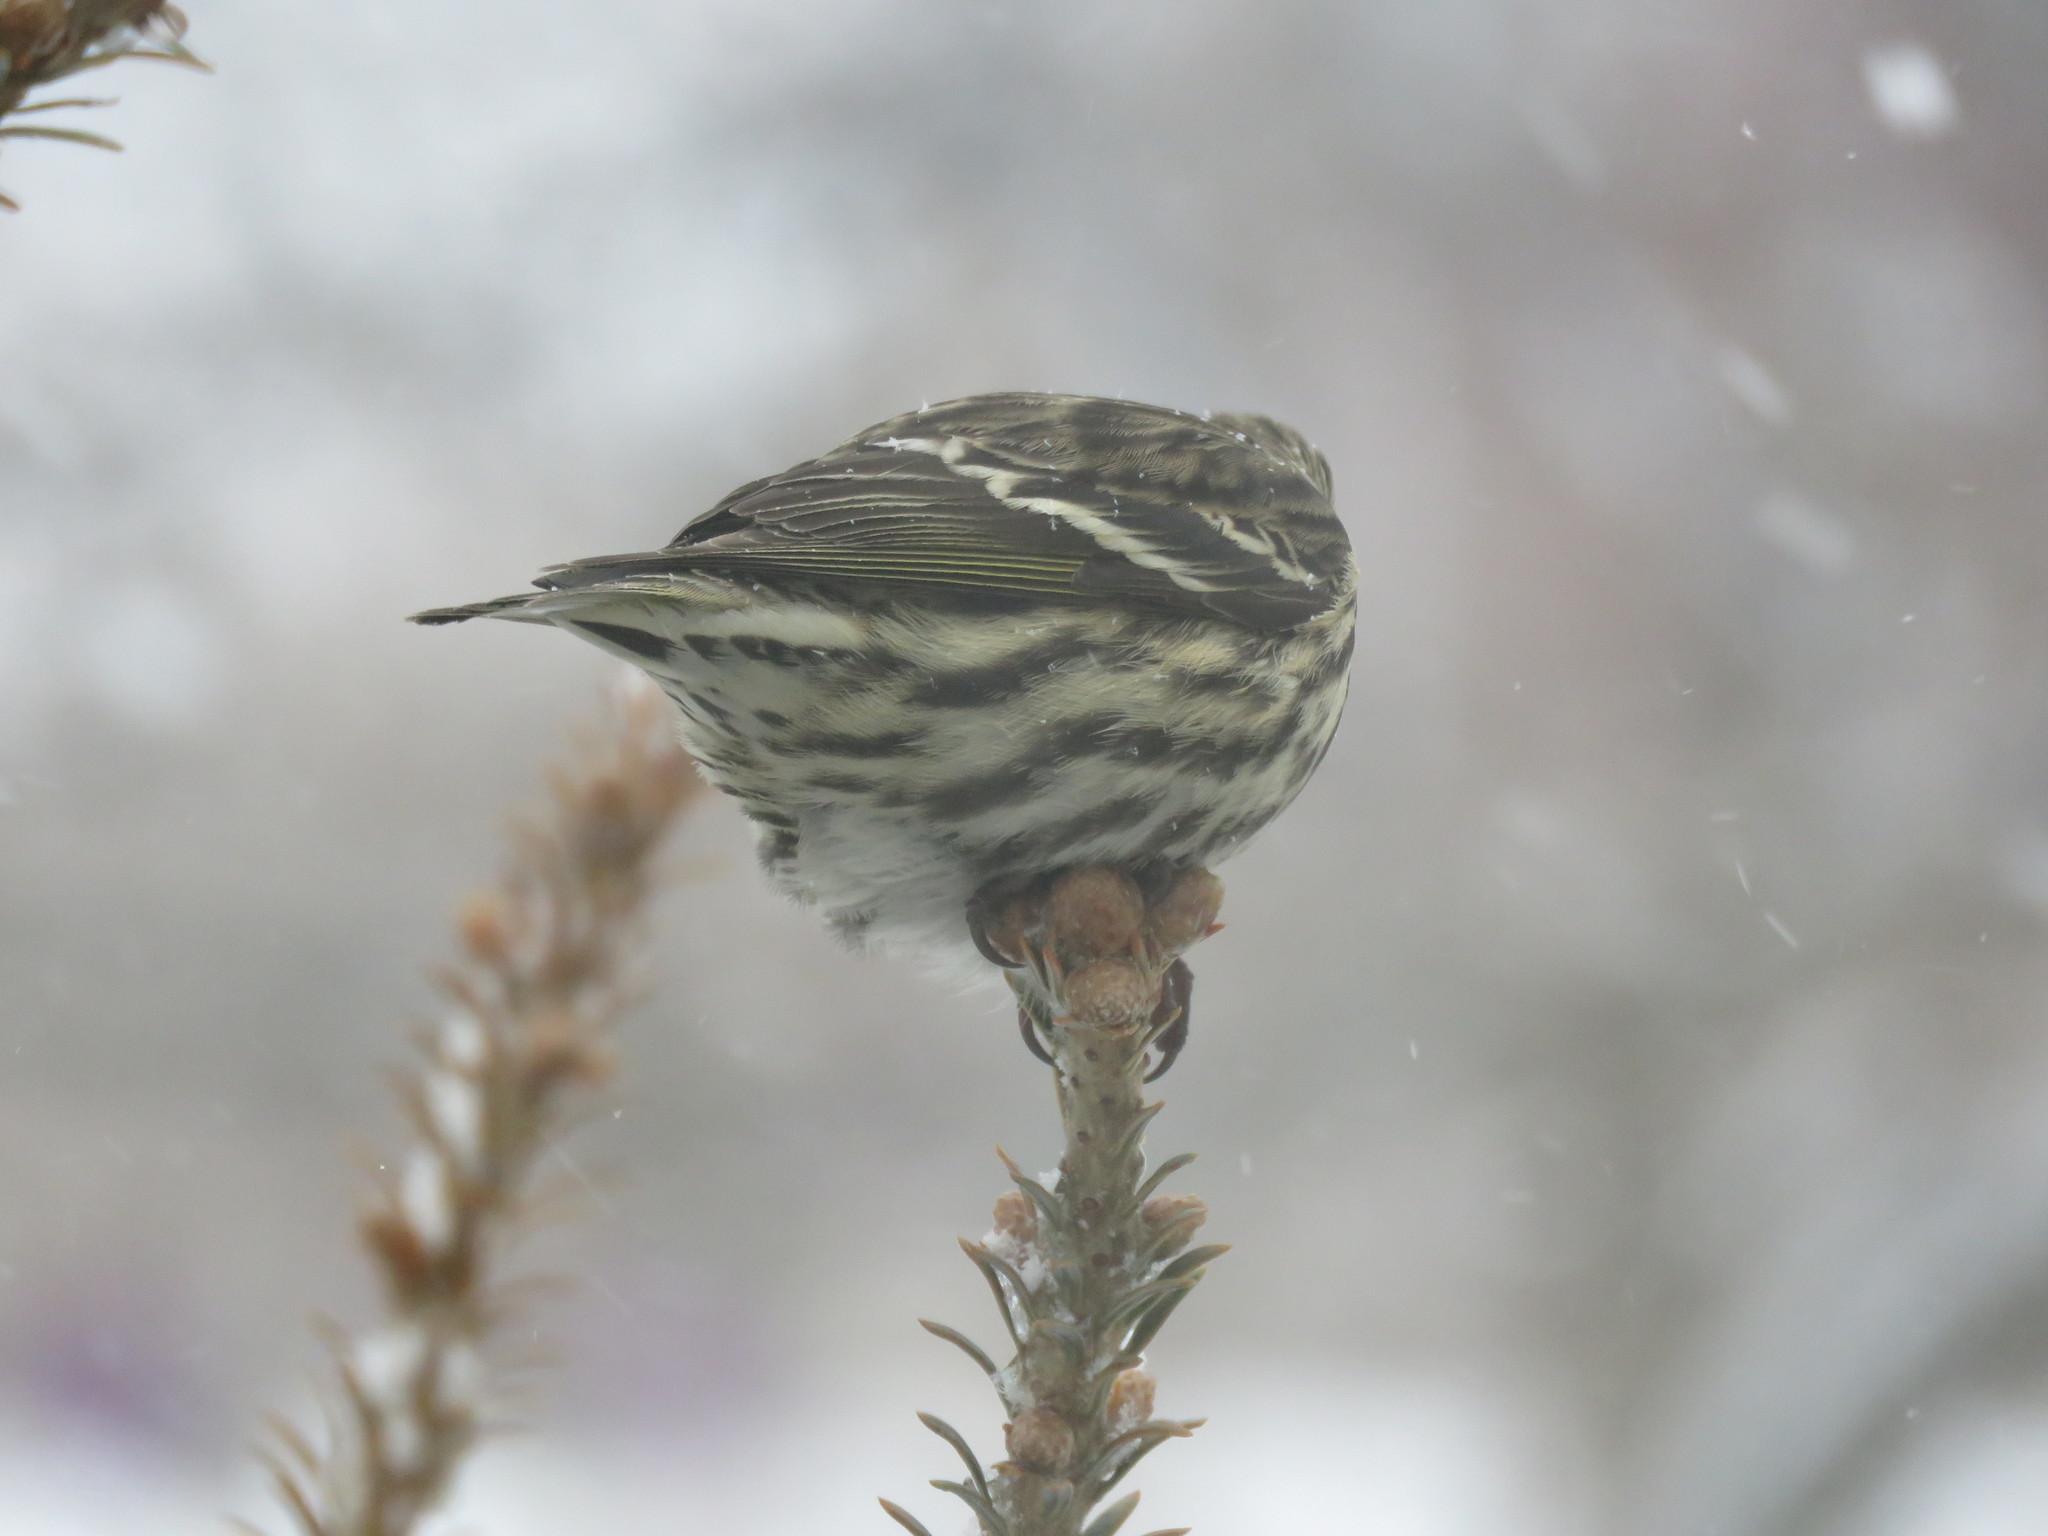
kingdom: Animalia
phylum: Chordata
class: Aves
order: Passeriformes
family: Fringillidae
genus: Spinus
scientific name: Spinus pinus
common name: Pine siskin
